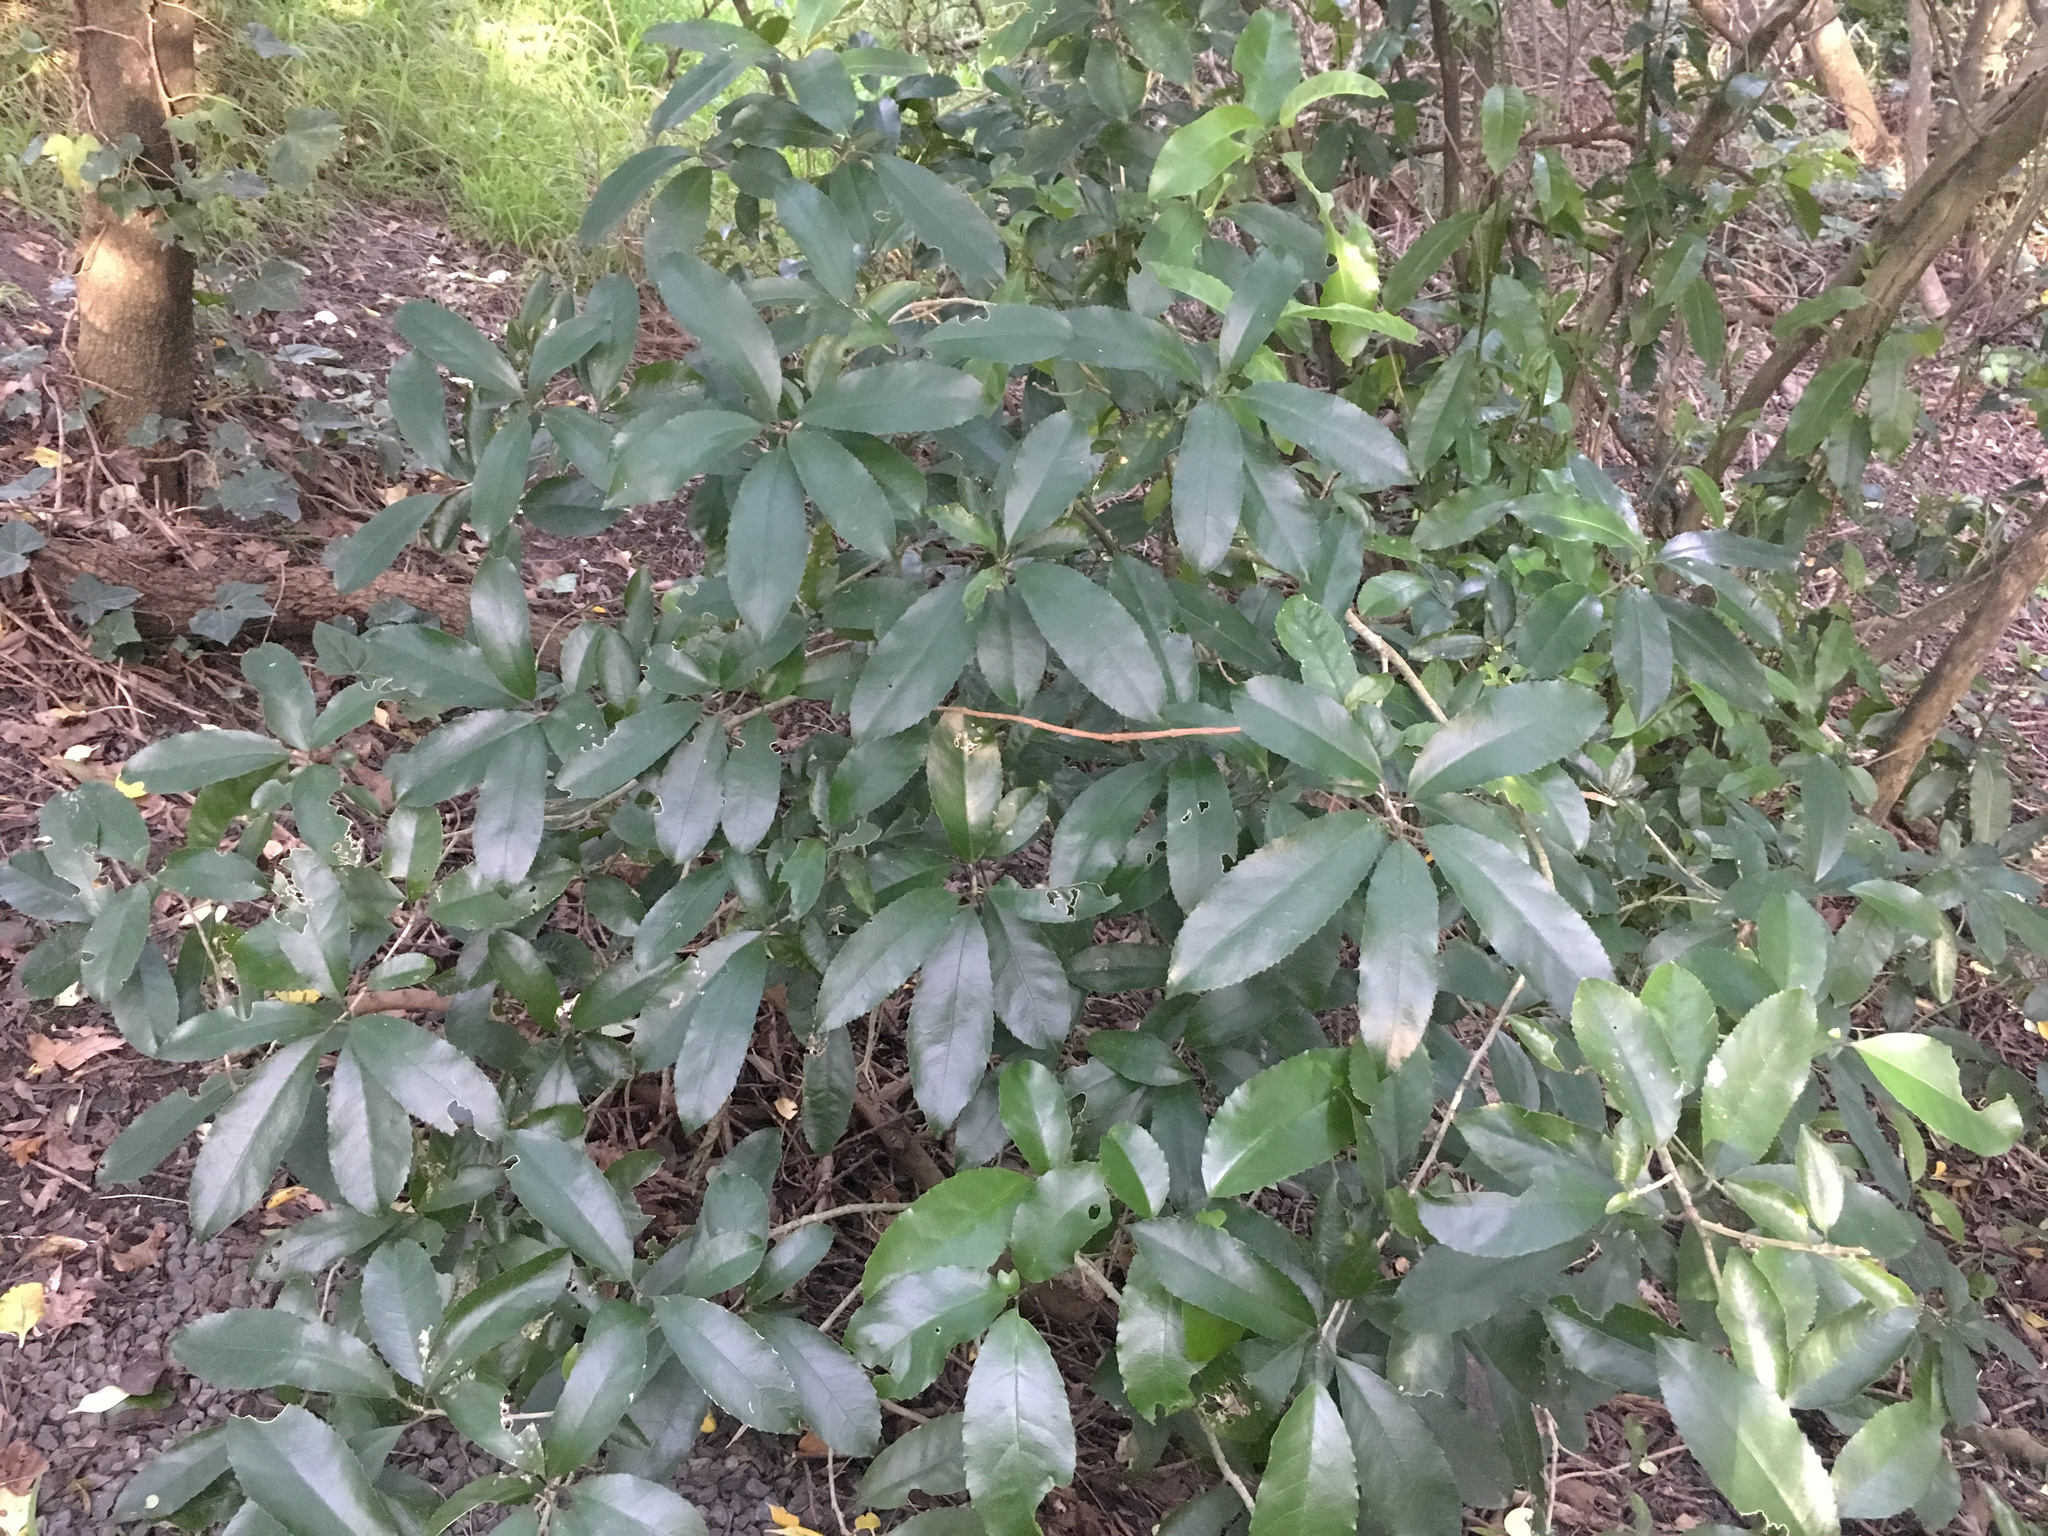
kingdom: Plantae
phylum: Tracheophyta
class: Magnoliopsida
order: Malpighiales
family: Violaceae
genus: Melicytus
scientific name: Melicytus ramiflorus
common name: Mahoe
